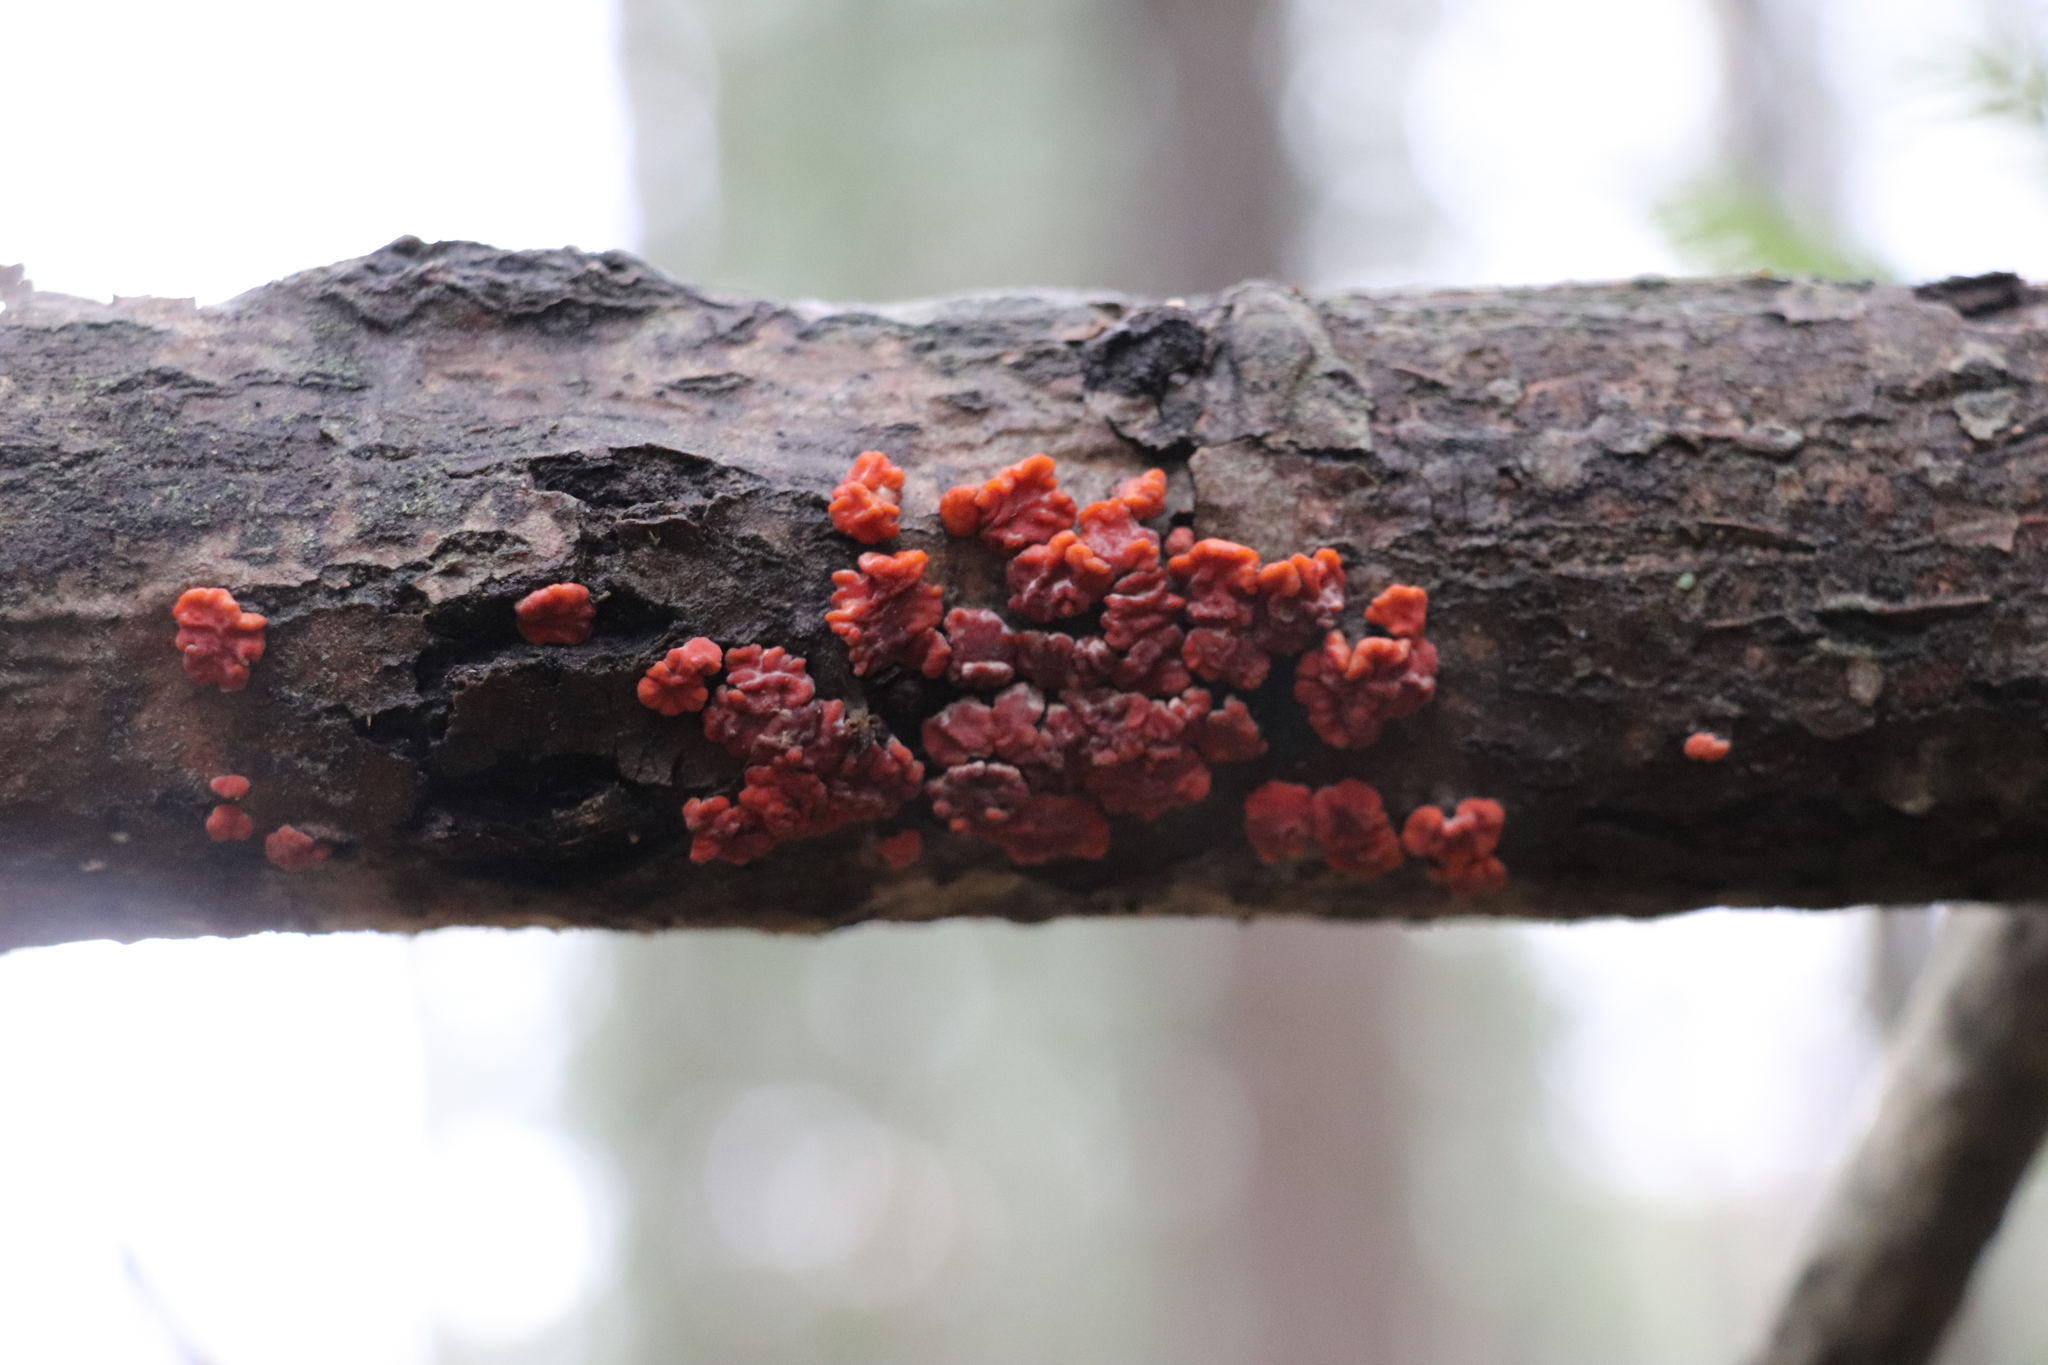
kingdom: Fungi
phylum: Basidiomycota
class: Agaricomycetes
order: Russulales
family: Peniophoraceae
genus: Peniophora
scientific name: Peniophora rufa
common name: Red tree brain fungus
